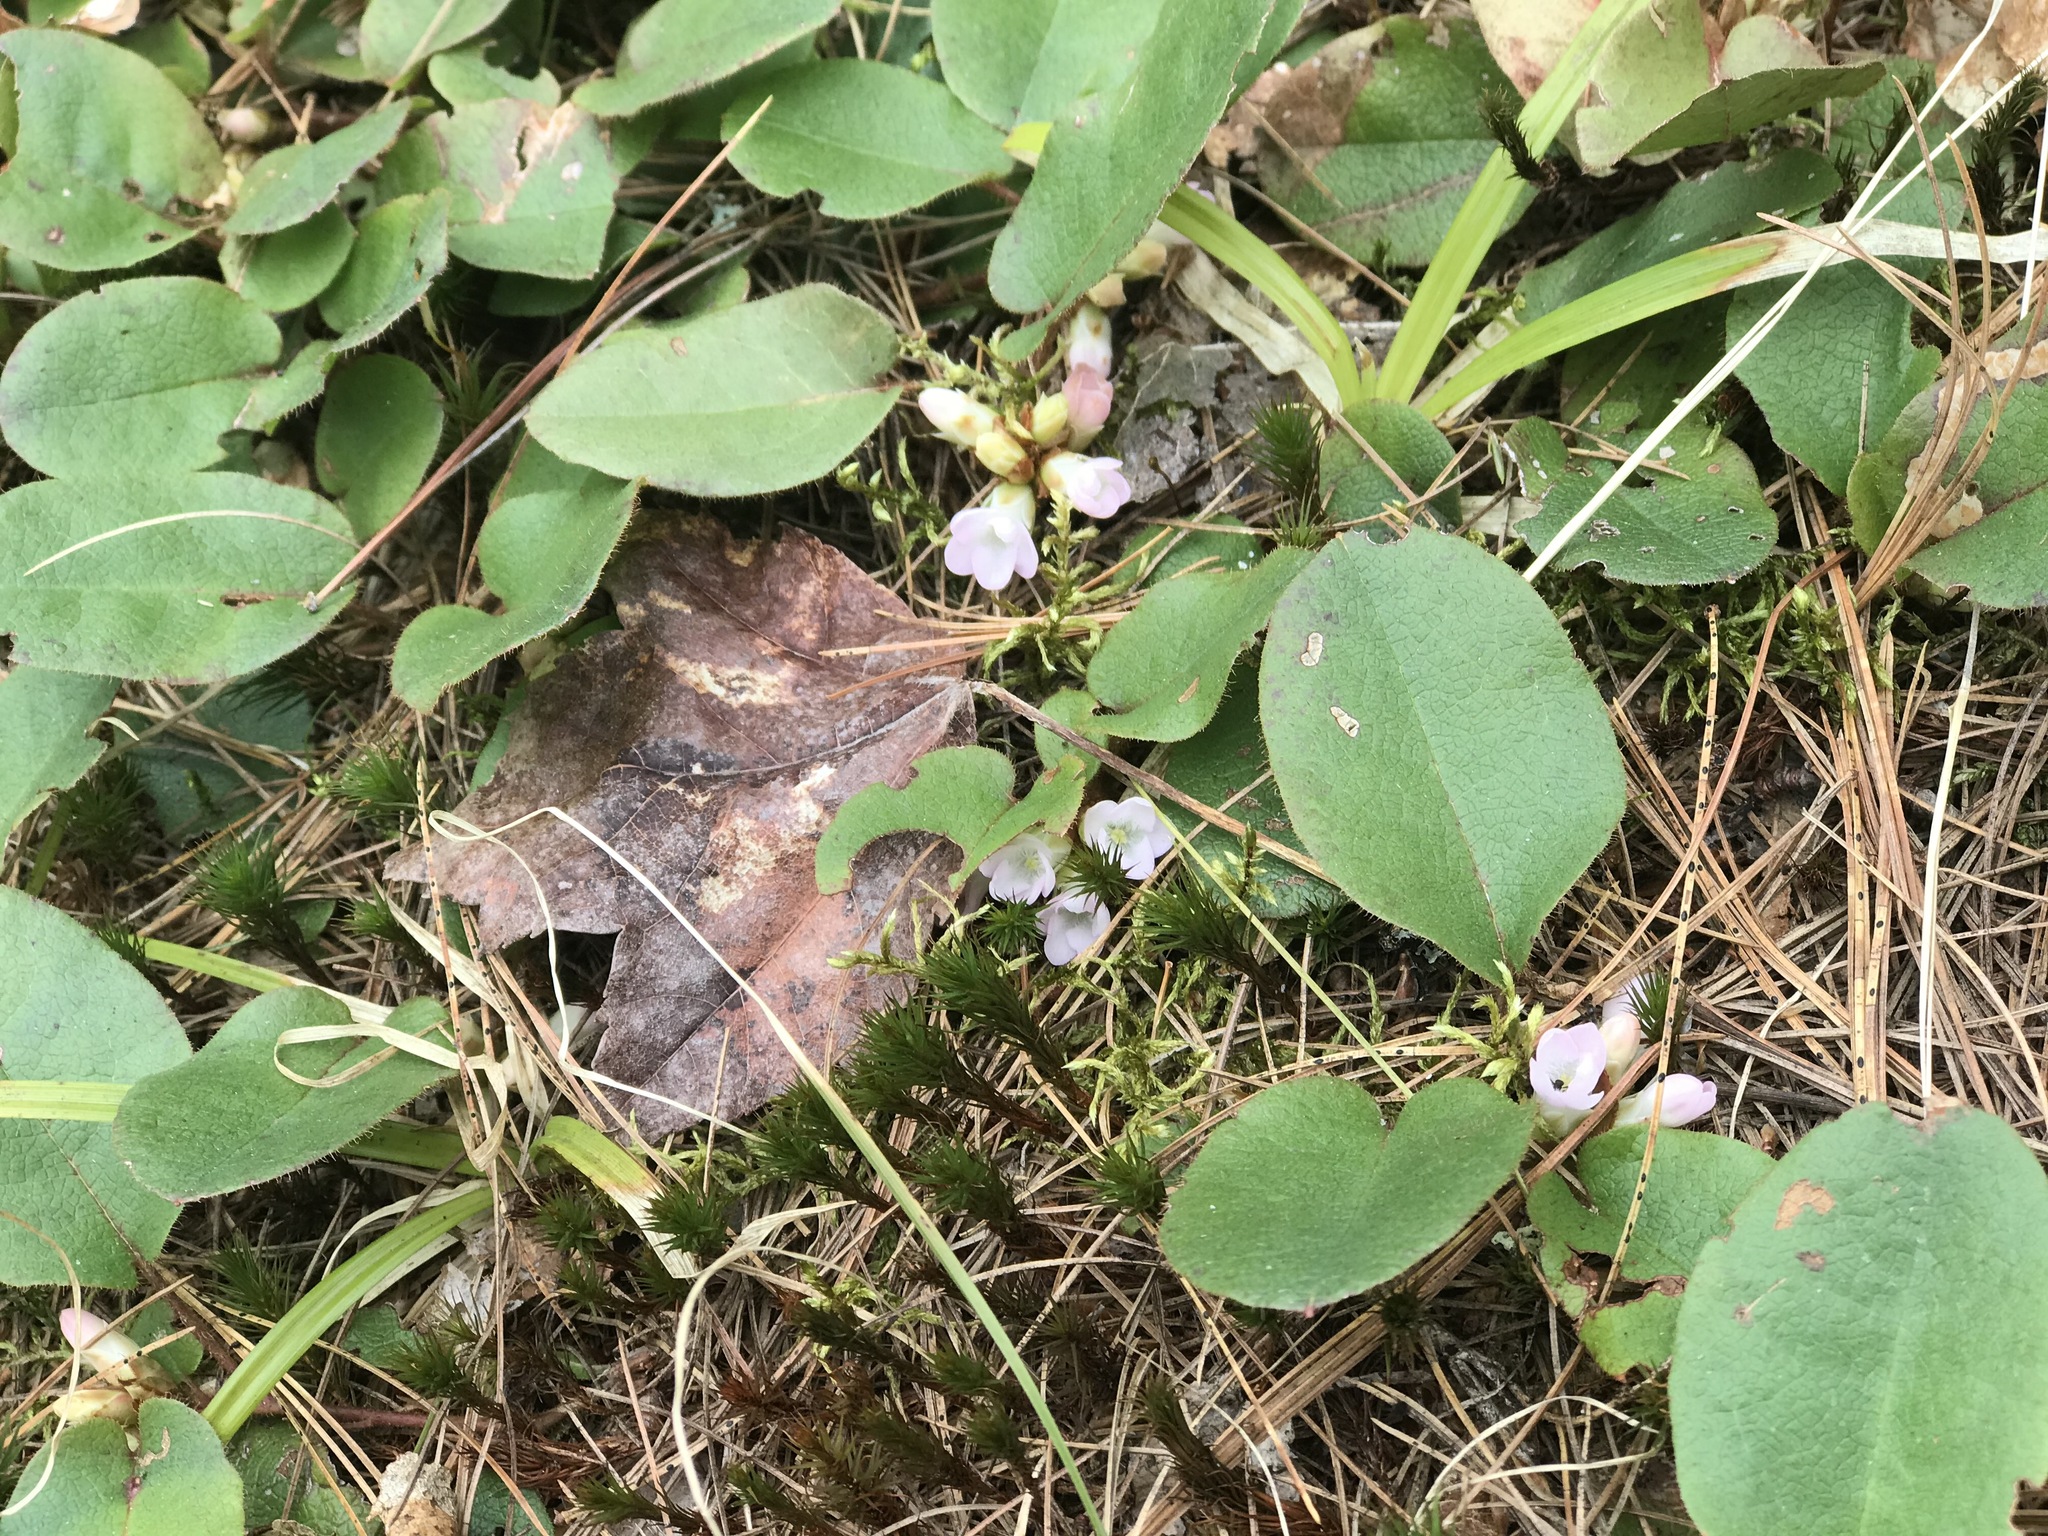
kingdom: Plantae
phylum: Tracheophyta
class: Magnoliopsida
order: Ericales
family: Ericaceae
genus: Epigaea
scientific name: Epigaea repens
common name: Gravelroot
